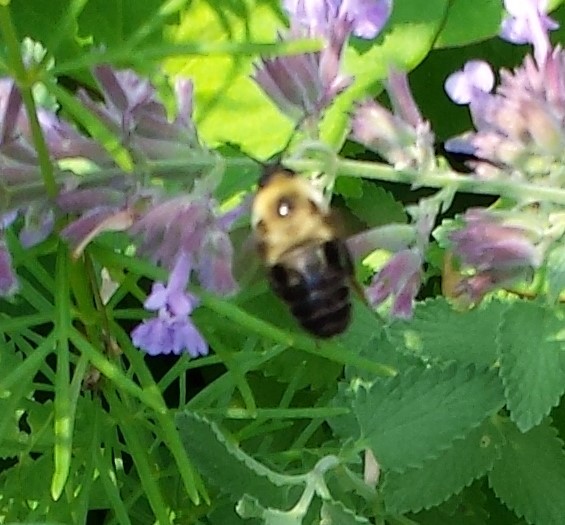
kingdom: Animalia
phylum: Arthropoda
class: Insecta
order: Hymenoptera
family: Apidae
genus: Bombus
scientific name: Bombus bimaculatus
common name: Two-spotted bumble bee
